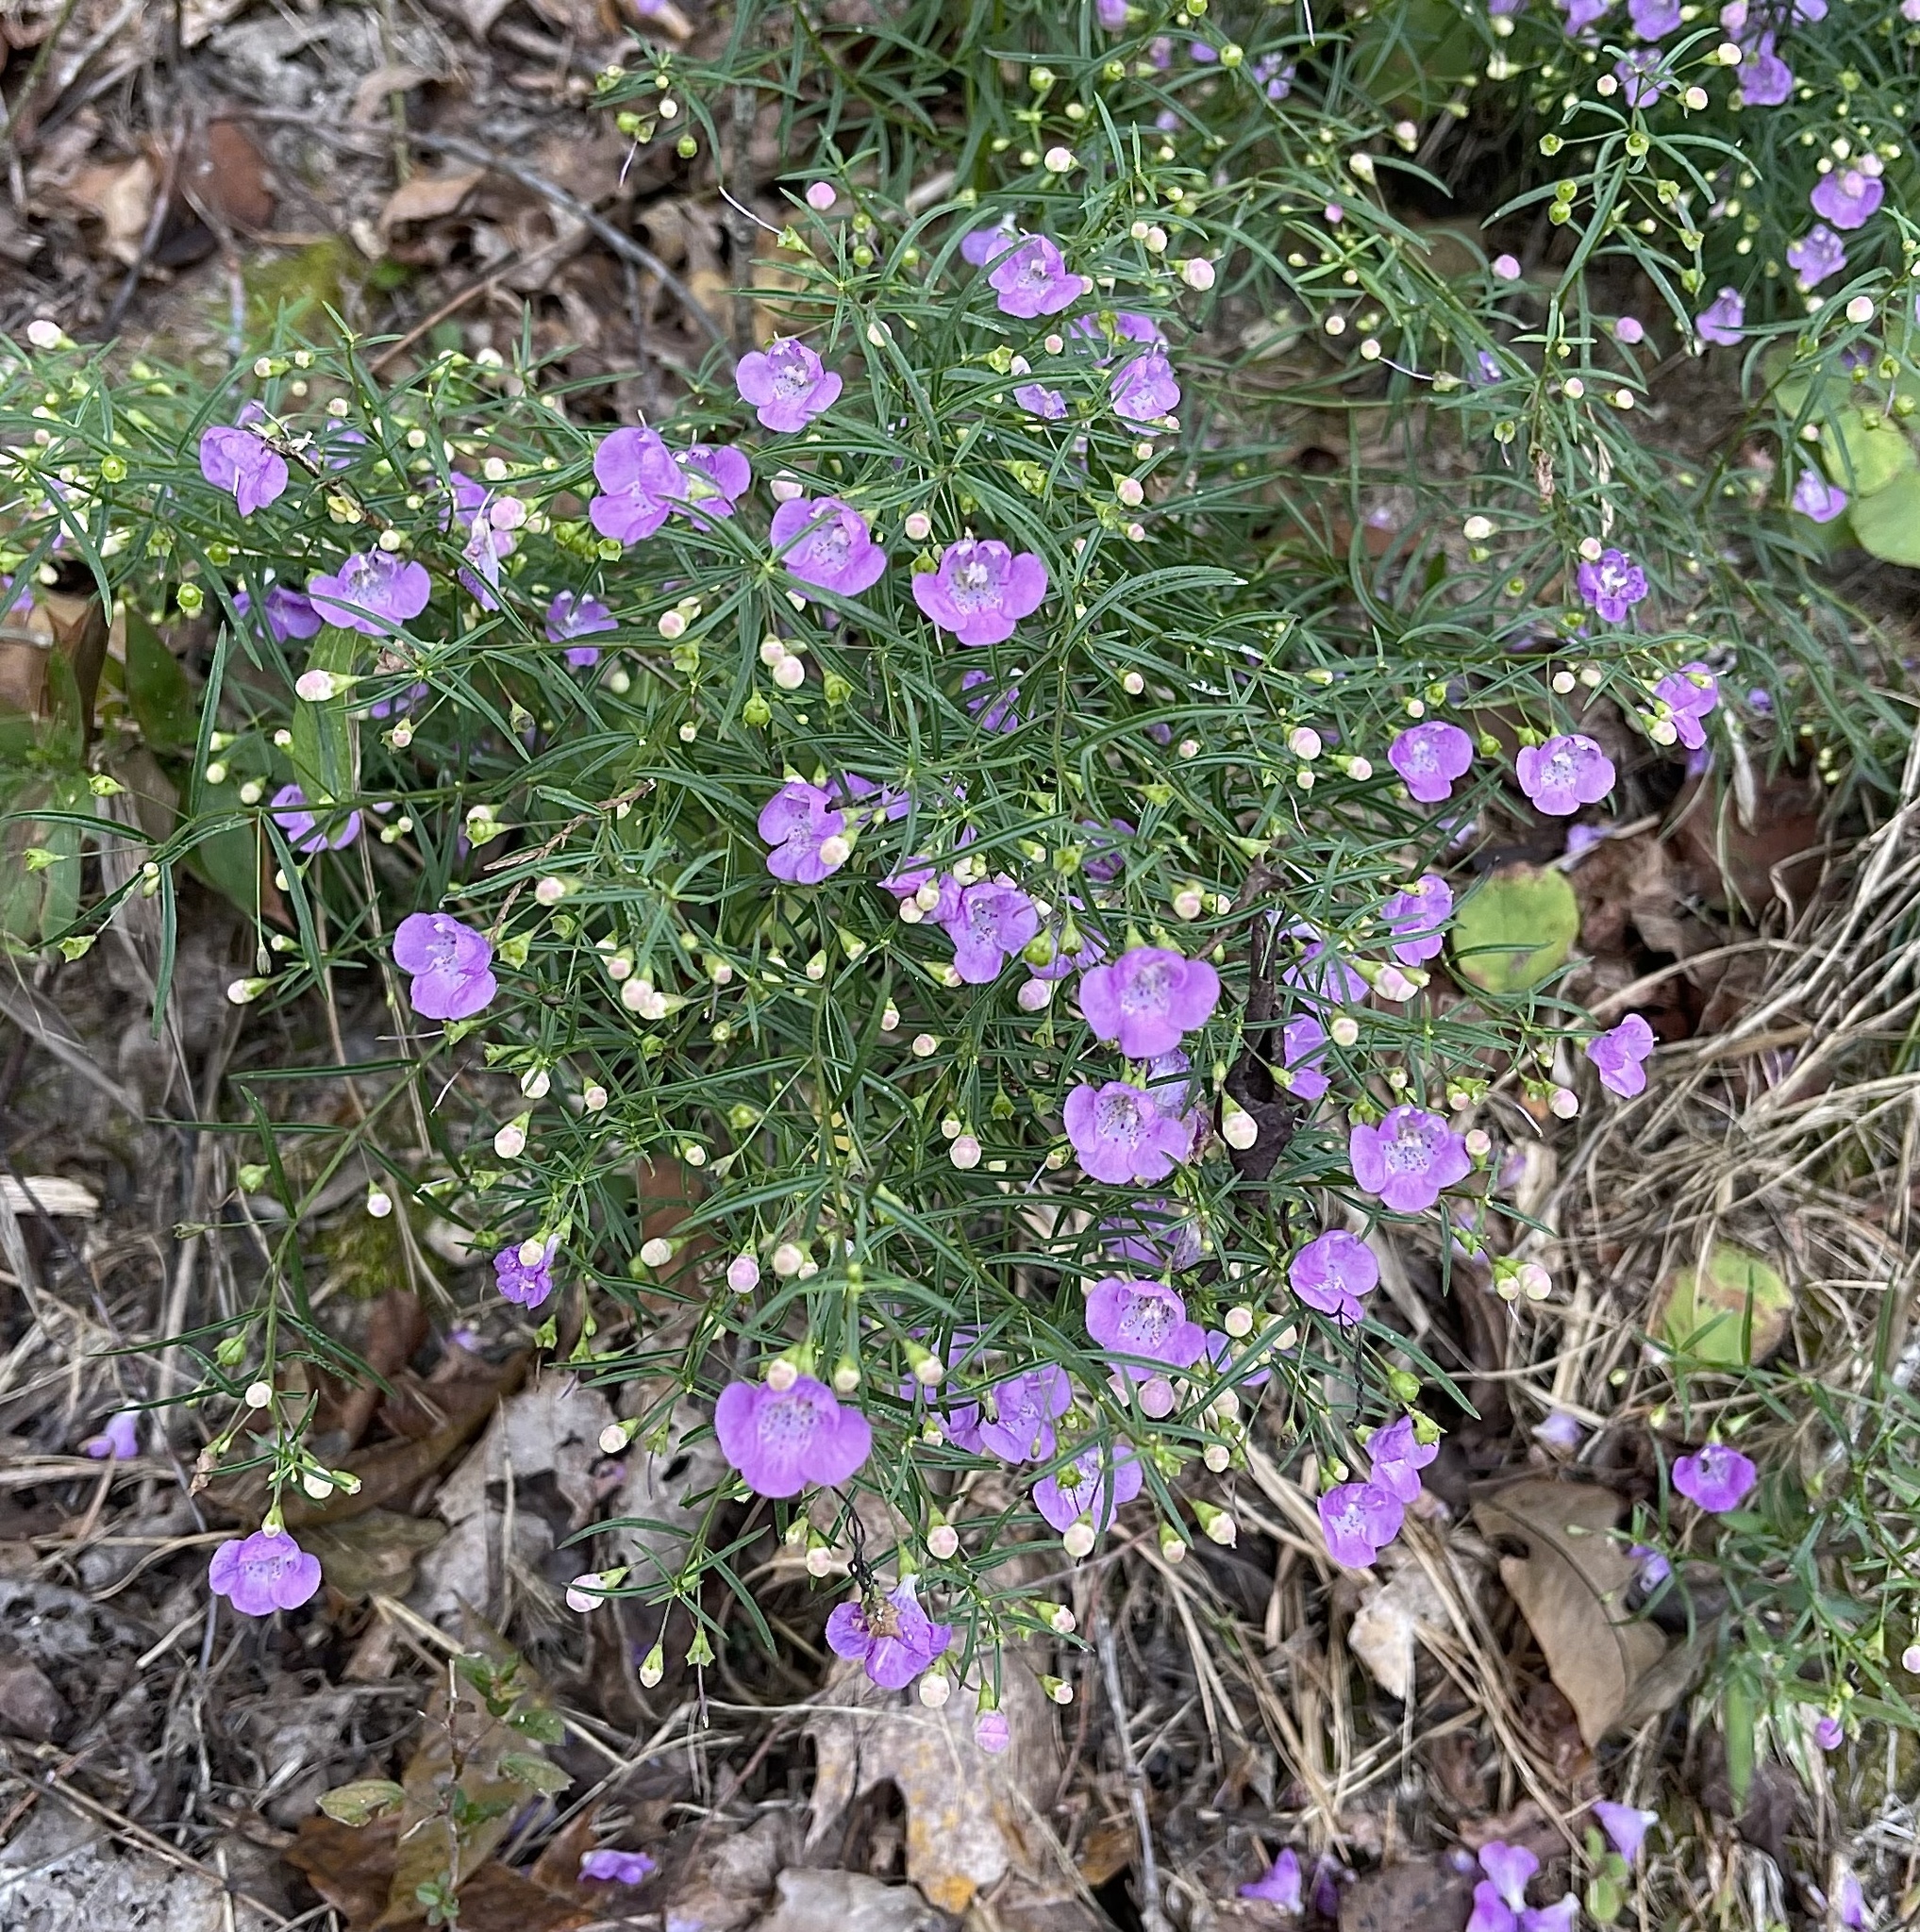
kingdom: Plantae
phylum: Tracheophyta
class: Magnoliopsida
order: Lamiales
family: Orobanchaceae
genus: Agalinis
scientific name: Agalinis tenuifolia
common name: Slender agalinis
